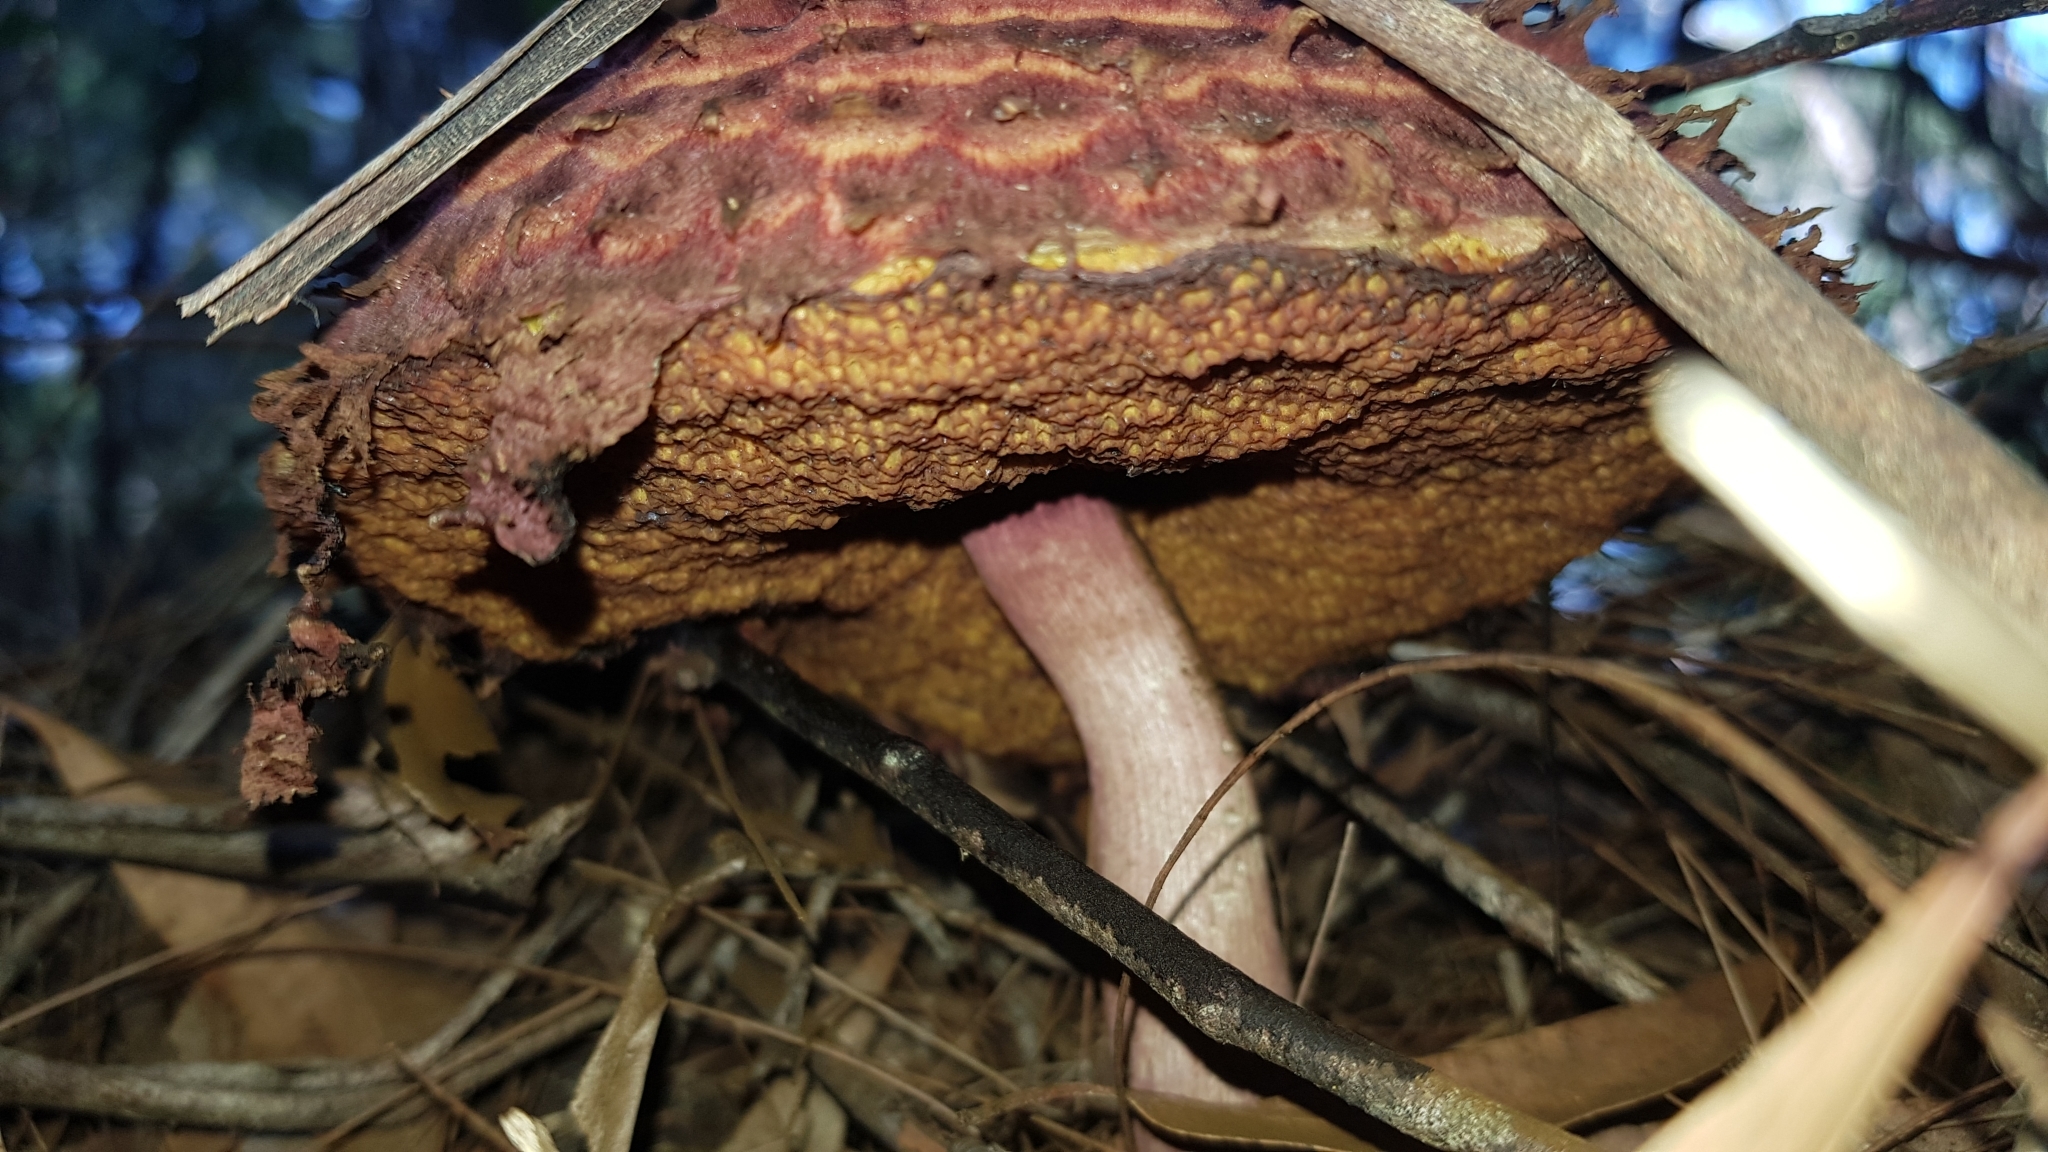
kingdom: Fungi
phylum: Basidiomycota
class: Agaricomycetes
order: Boletales
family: Boletaceae
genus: Boletellus
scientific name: Boletellus emodensis
